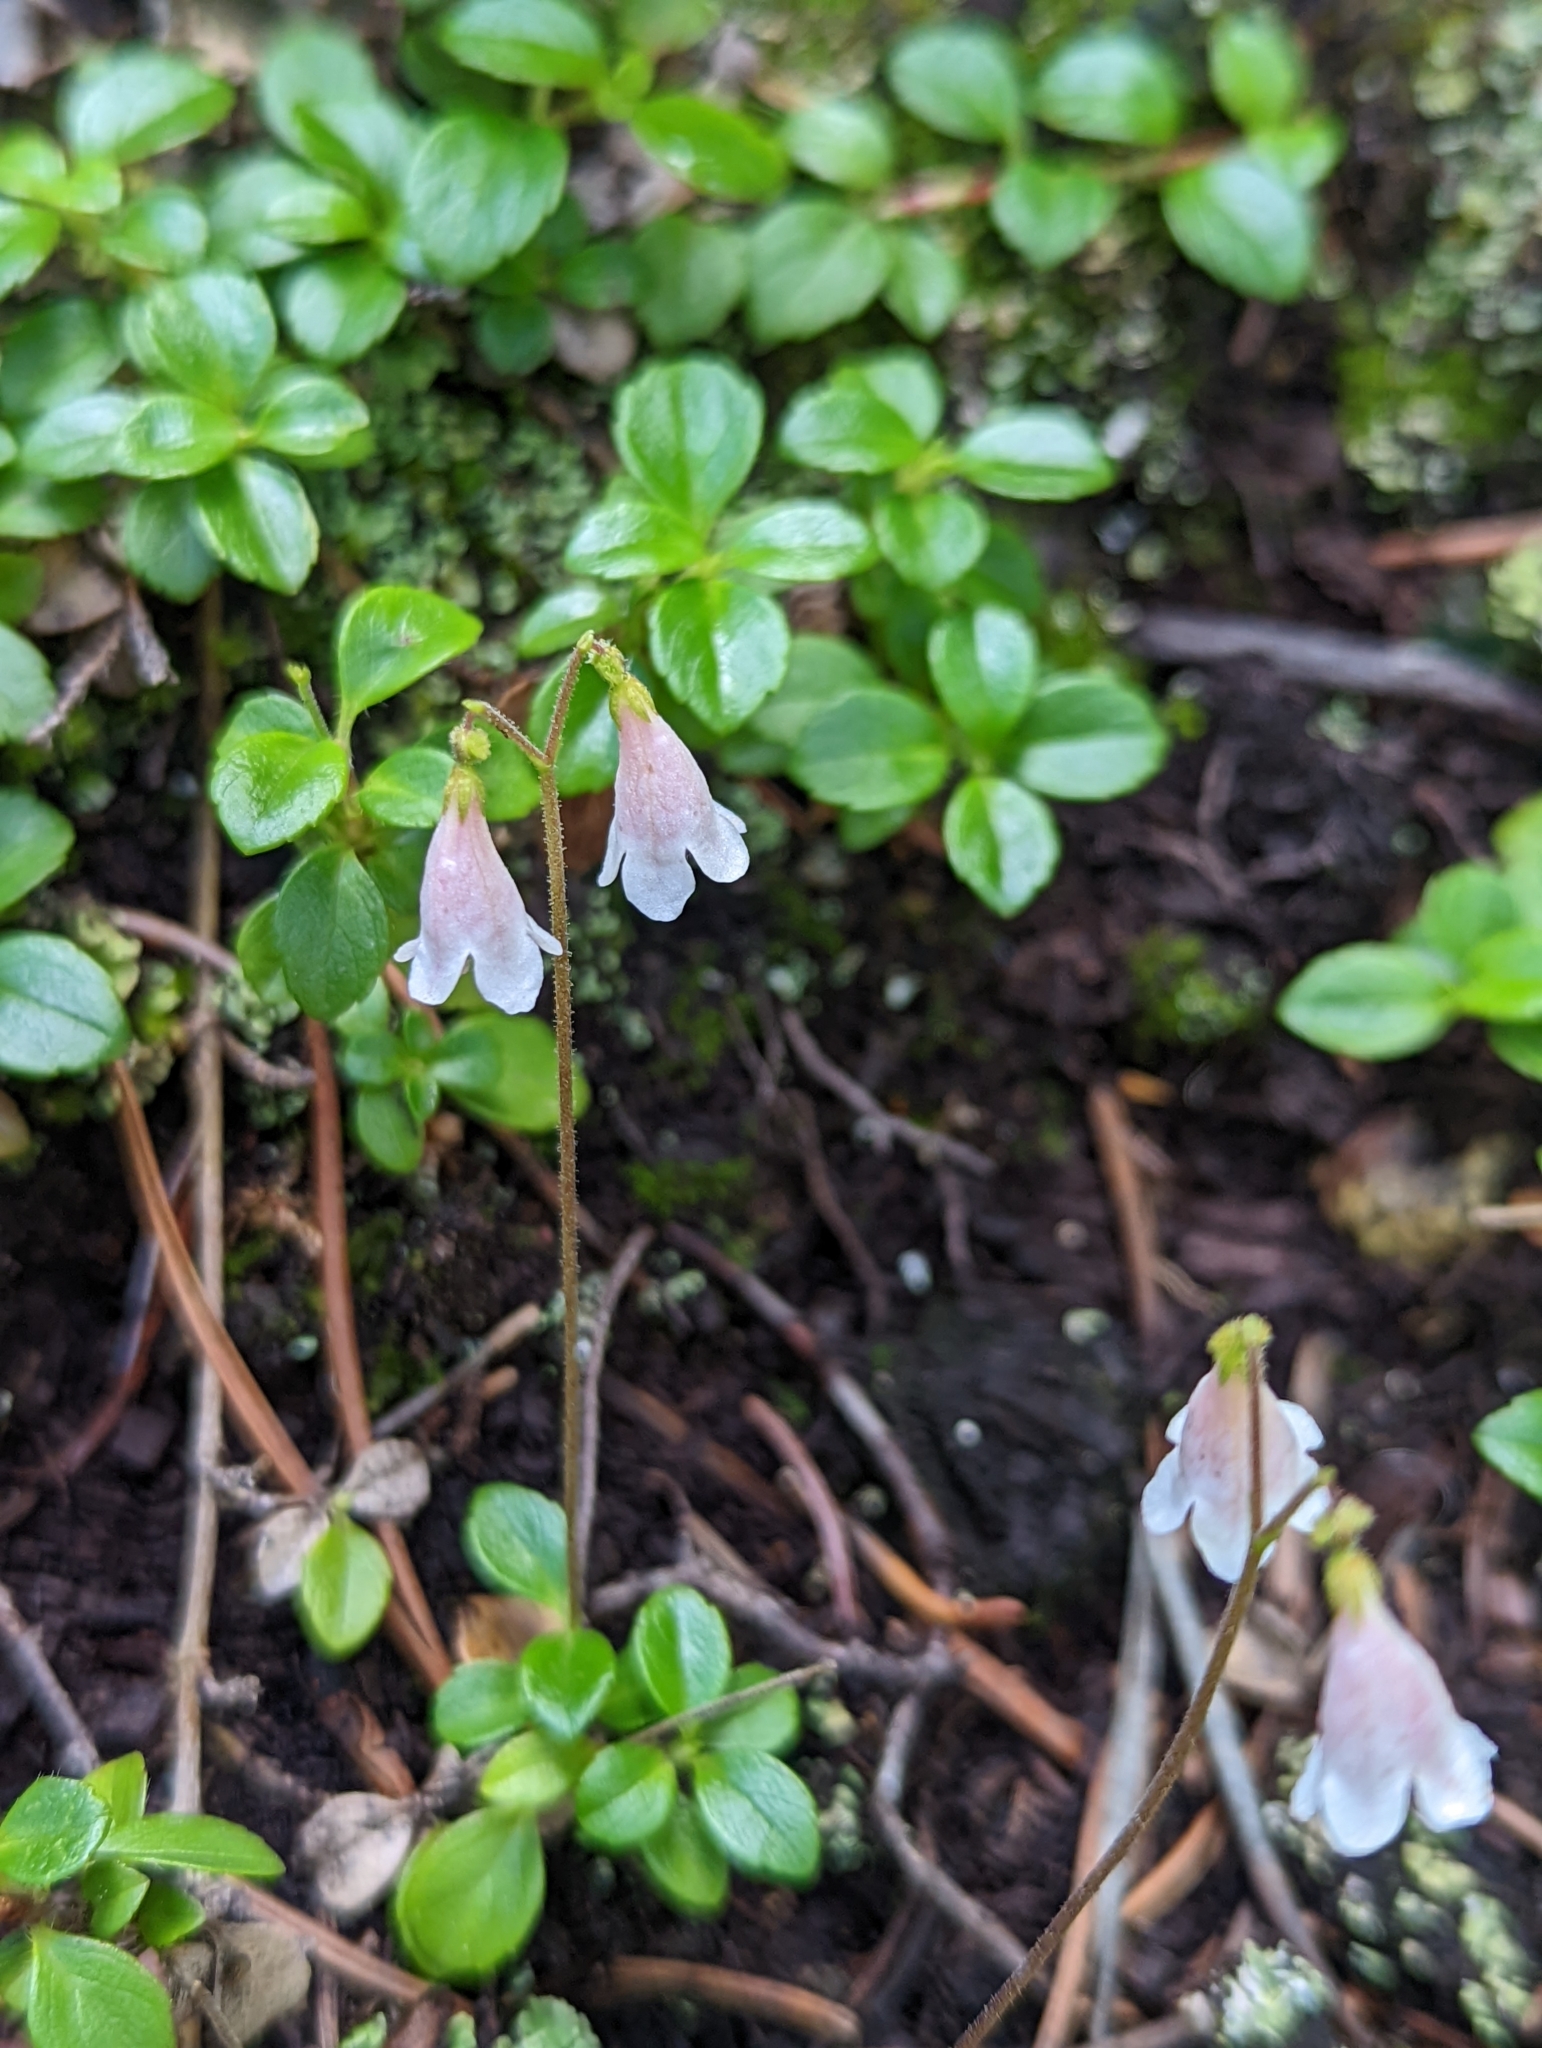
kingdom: Plantae
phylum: Tracheophyta
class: Magnoliopsida
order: Dipsacales
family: Caprifoliaceae
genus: Linnaea
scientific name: Linnaea borealis
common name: Twinflower
